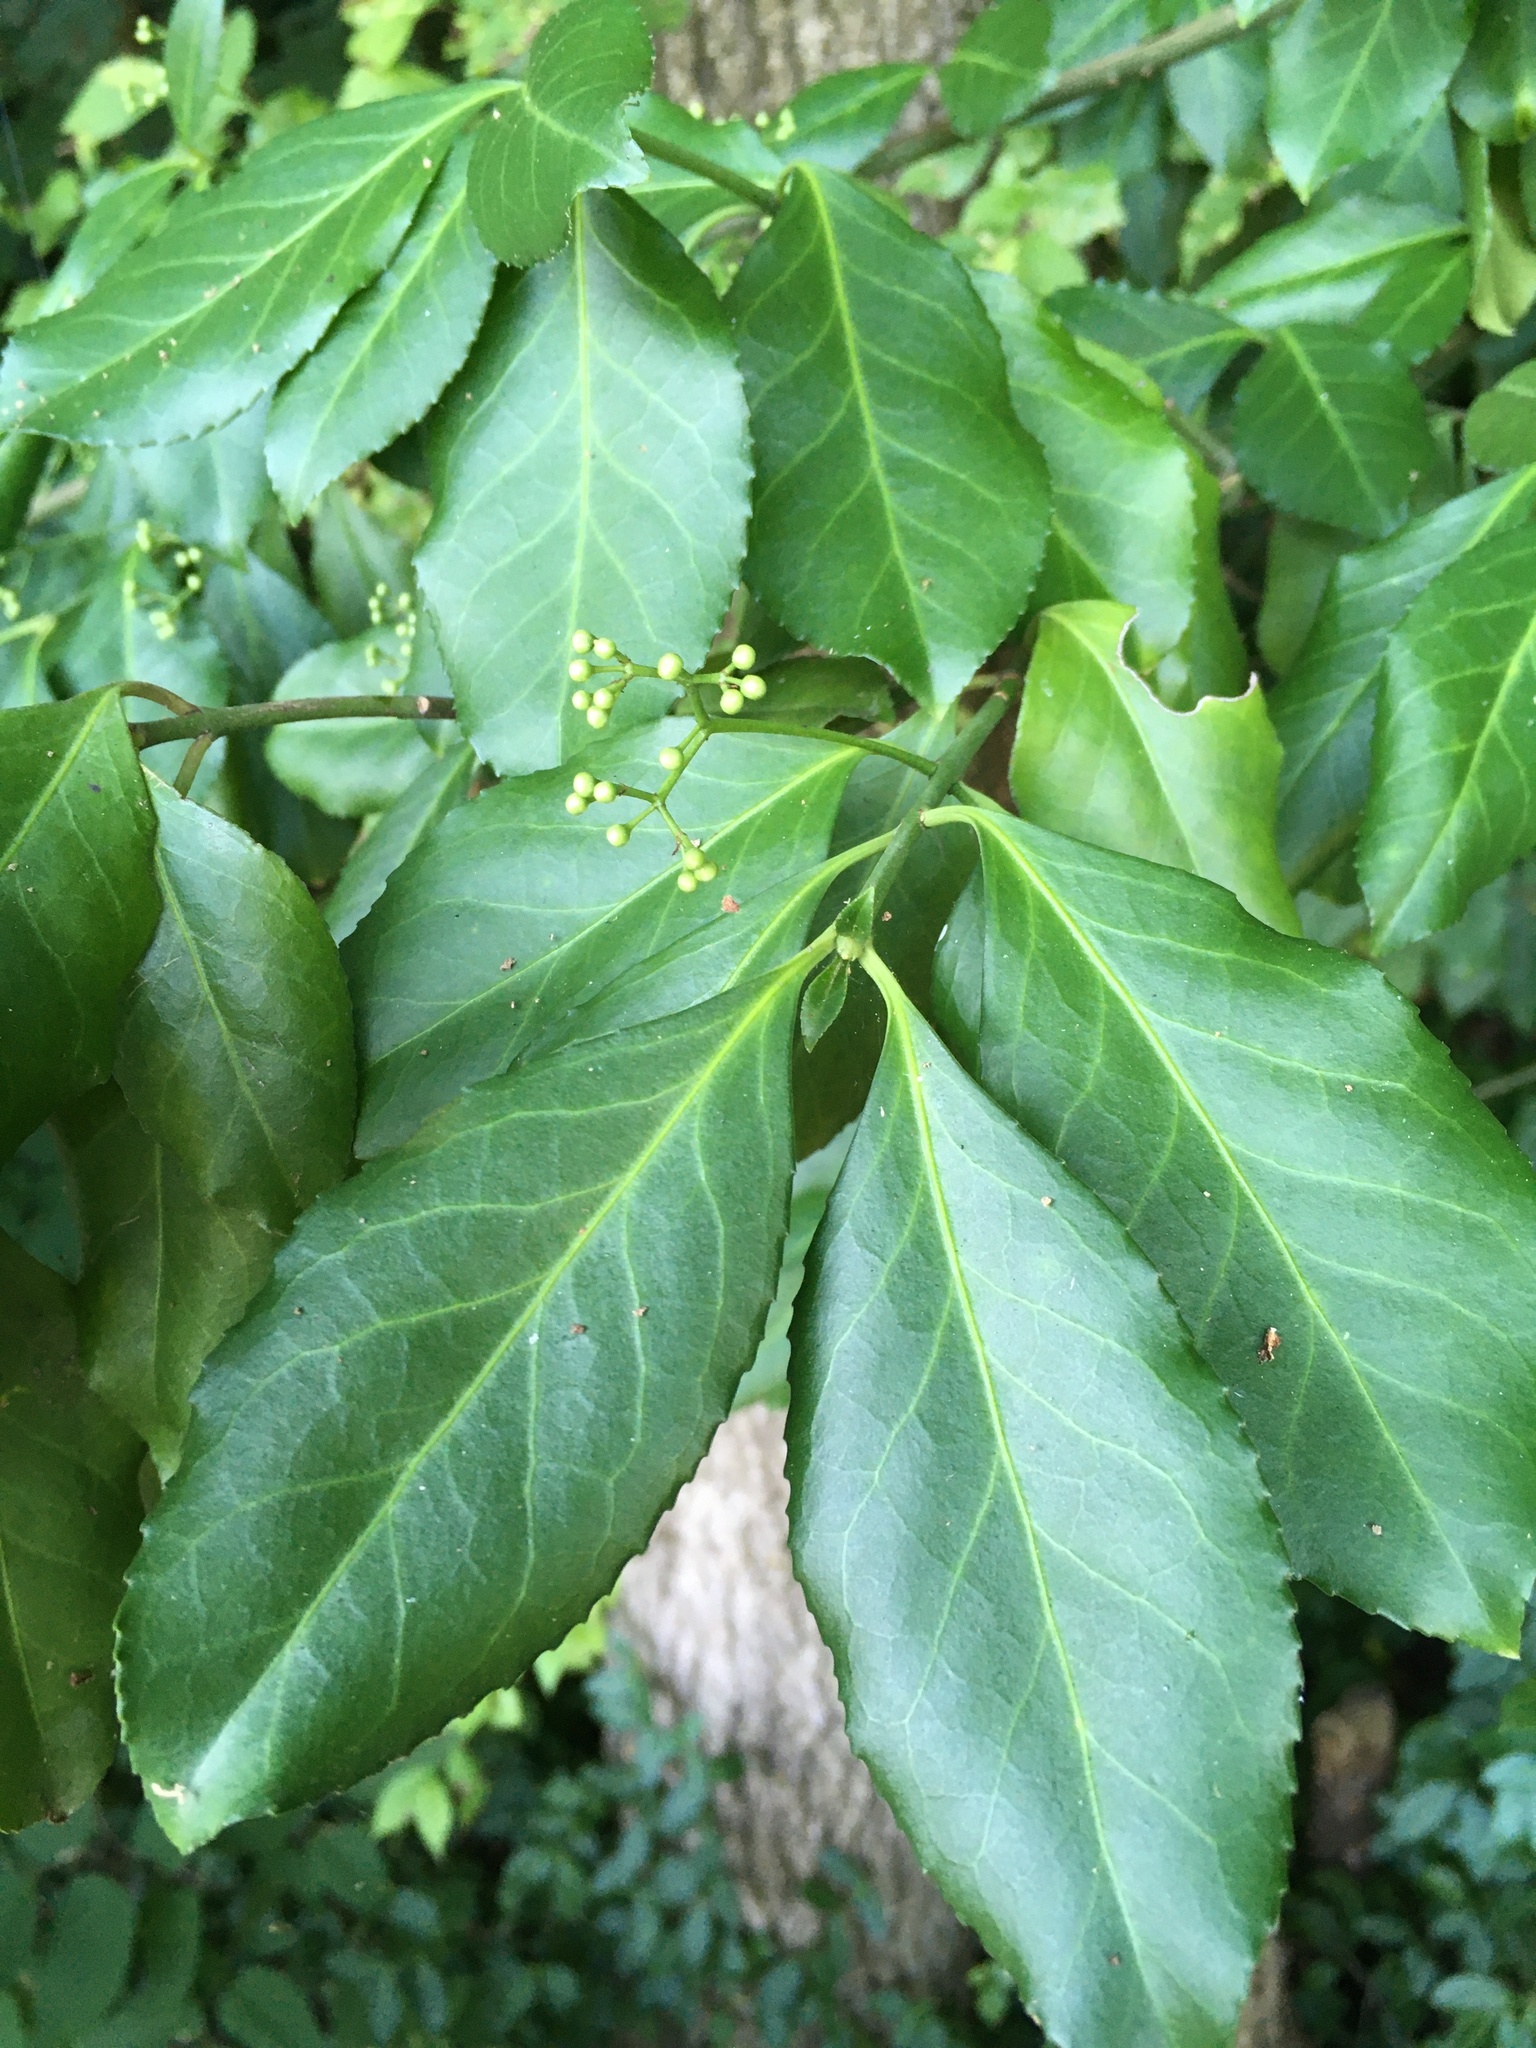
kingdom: Plantae
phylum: Tracheophyta
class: Magnoliopsida
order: Celastrales
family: Celastraceae
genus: Euonymus
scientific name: Euonymus fortunei
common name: Climbing euonymus
